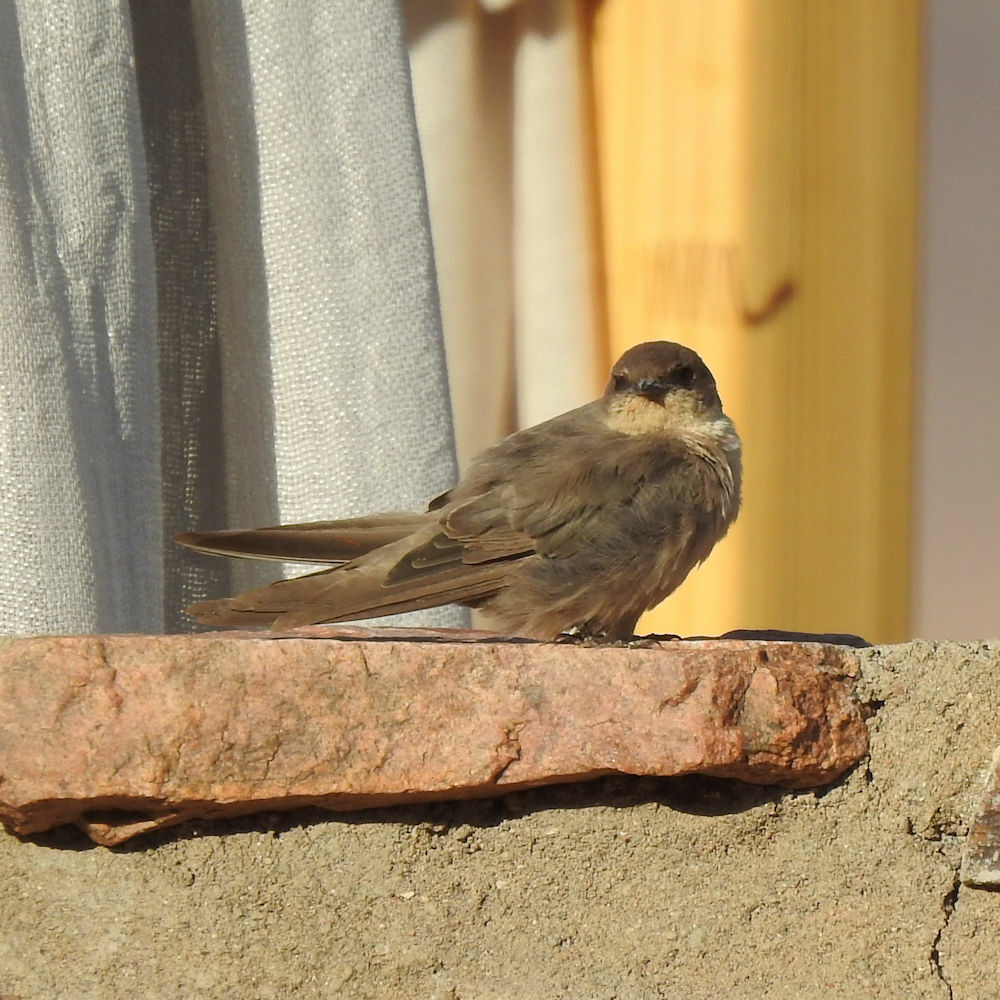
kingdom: Animalia
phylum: Chordata
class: Aves
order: Passeriformes
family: Hirundinidae
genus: Ptyonoprogne
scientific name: Ptyonoprogne fuligula
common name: Rock martin
